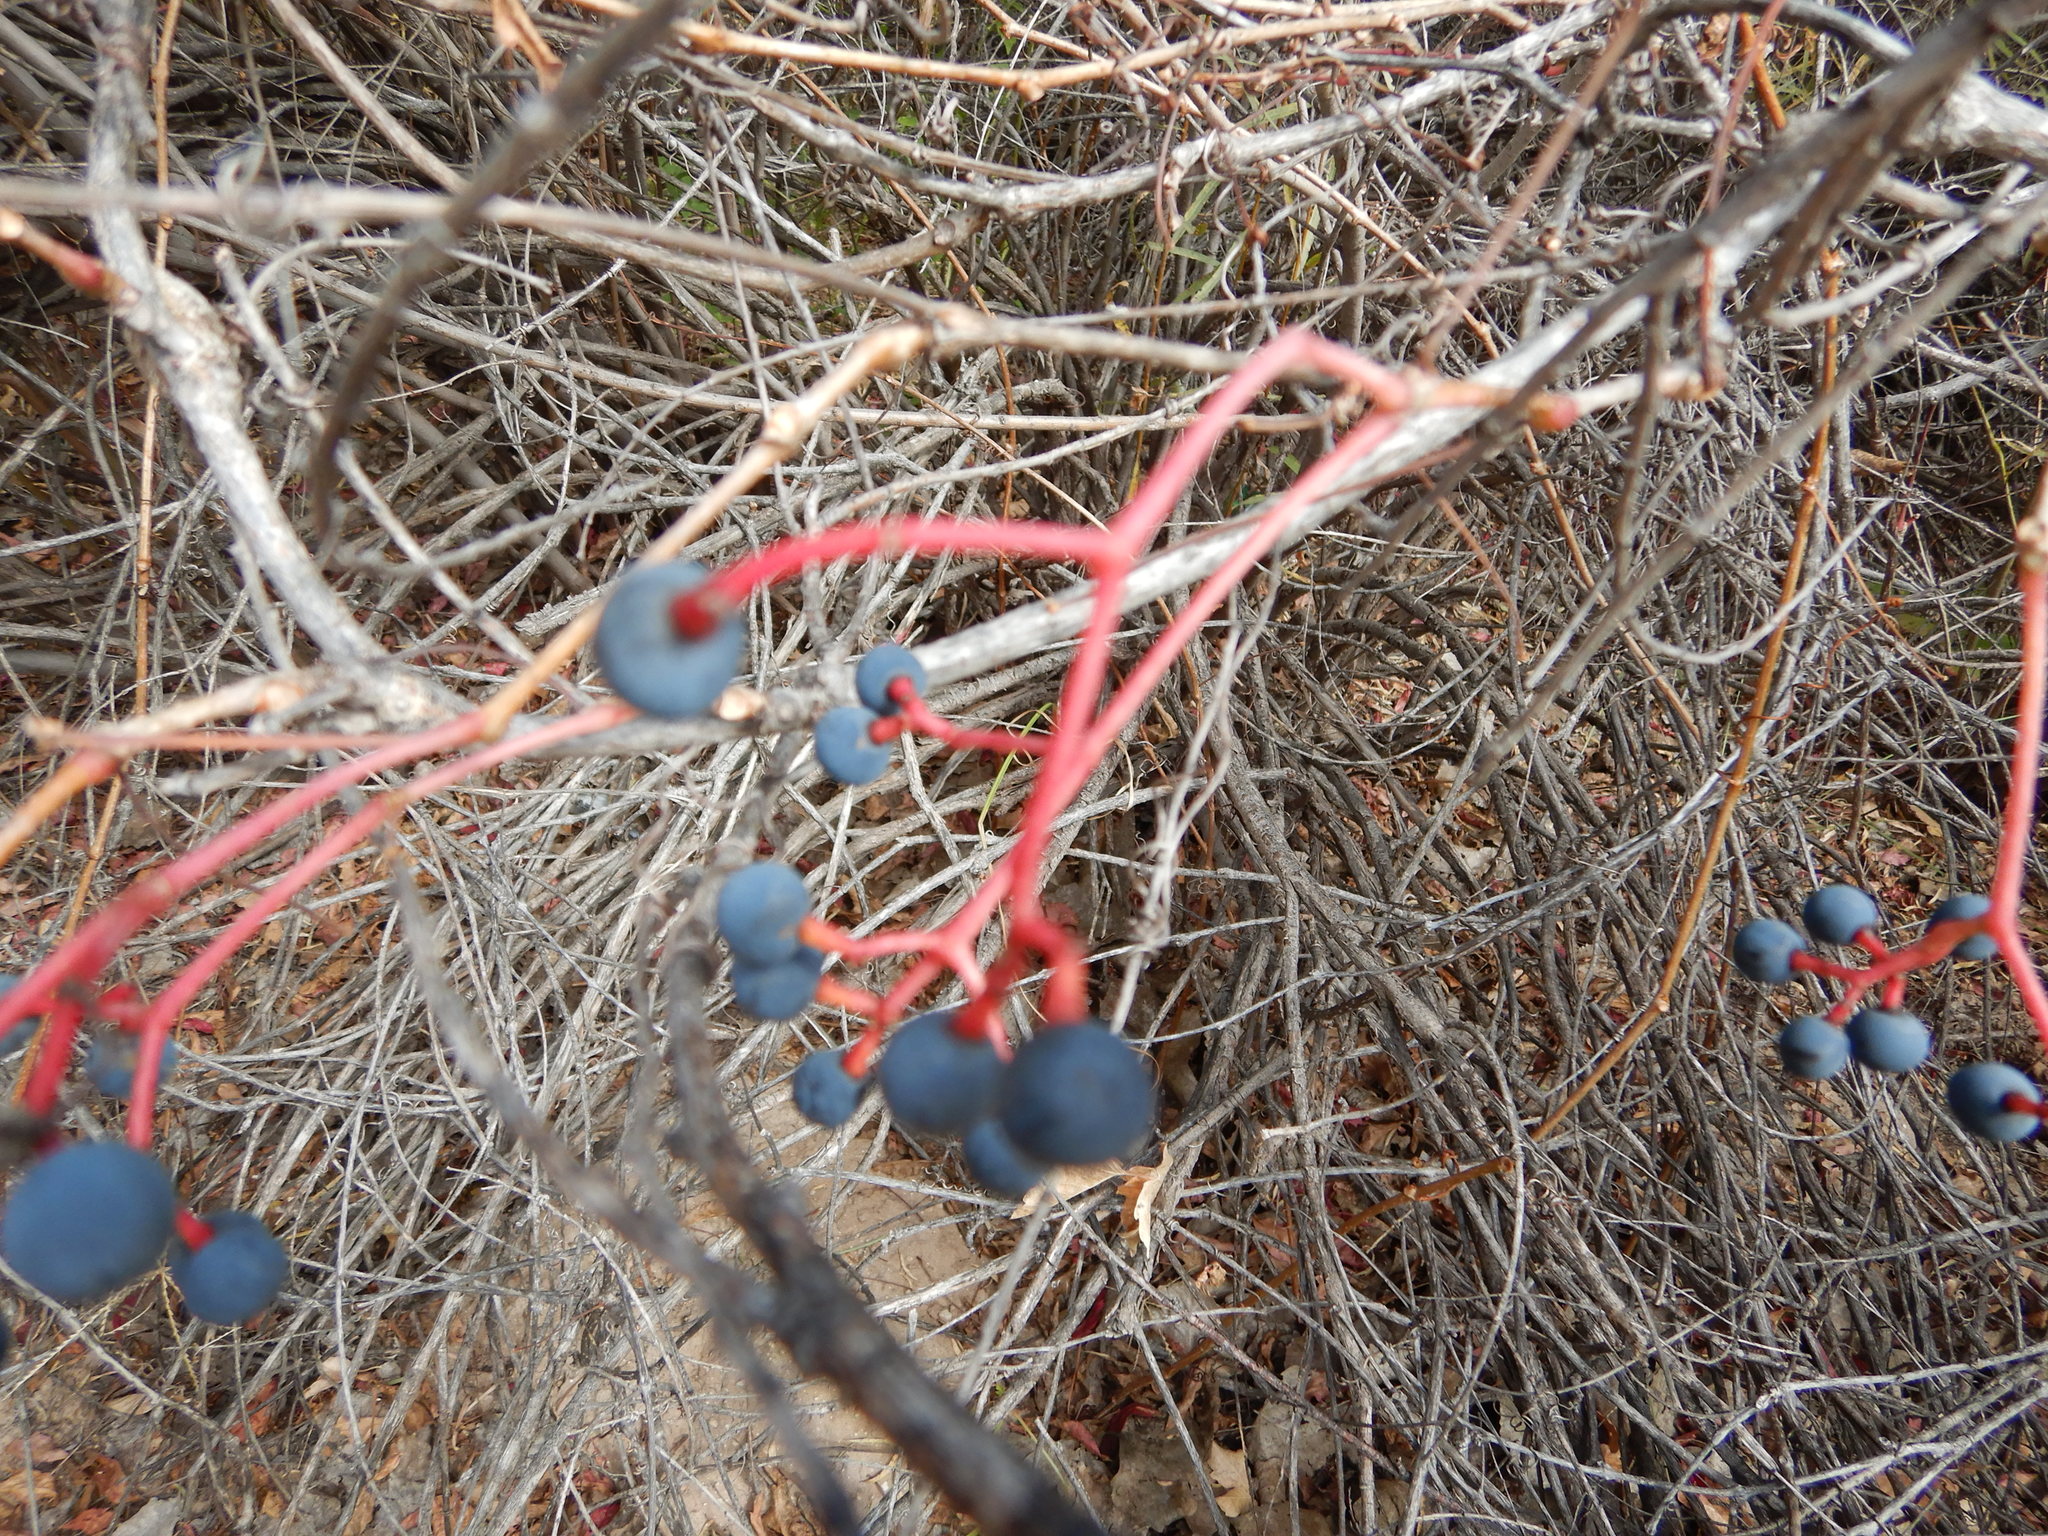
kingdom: Plantae
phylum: Tracheophyta
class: Magnoliopsida
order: Vitales
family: Vitaceae
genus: Parthenocissus
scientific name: Parthenocissus quinquefolia
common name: Virginia-creeper
